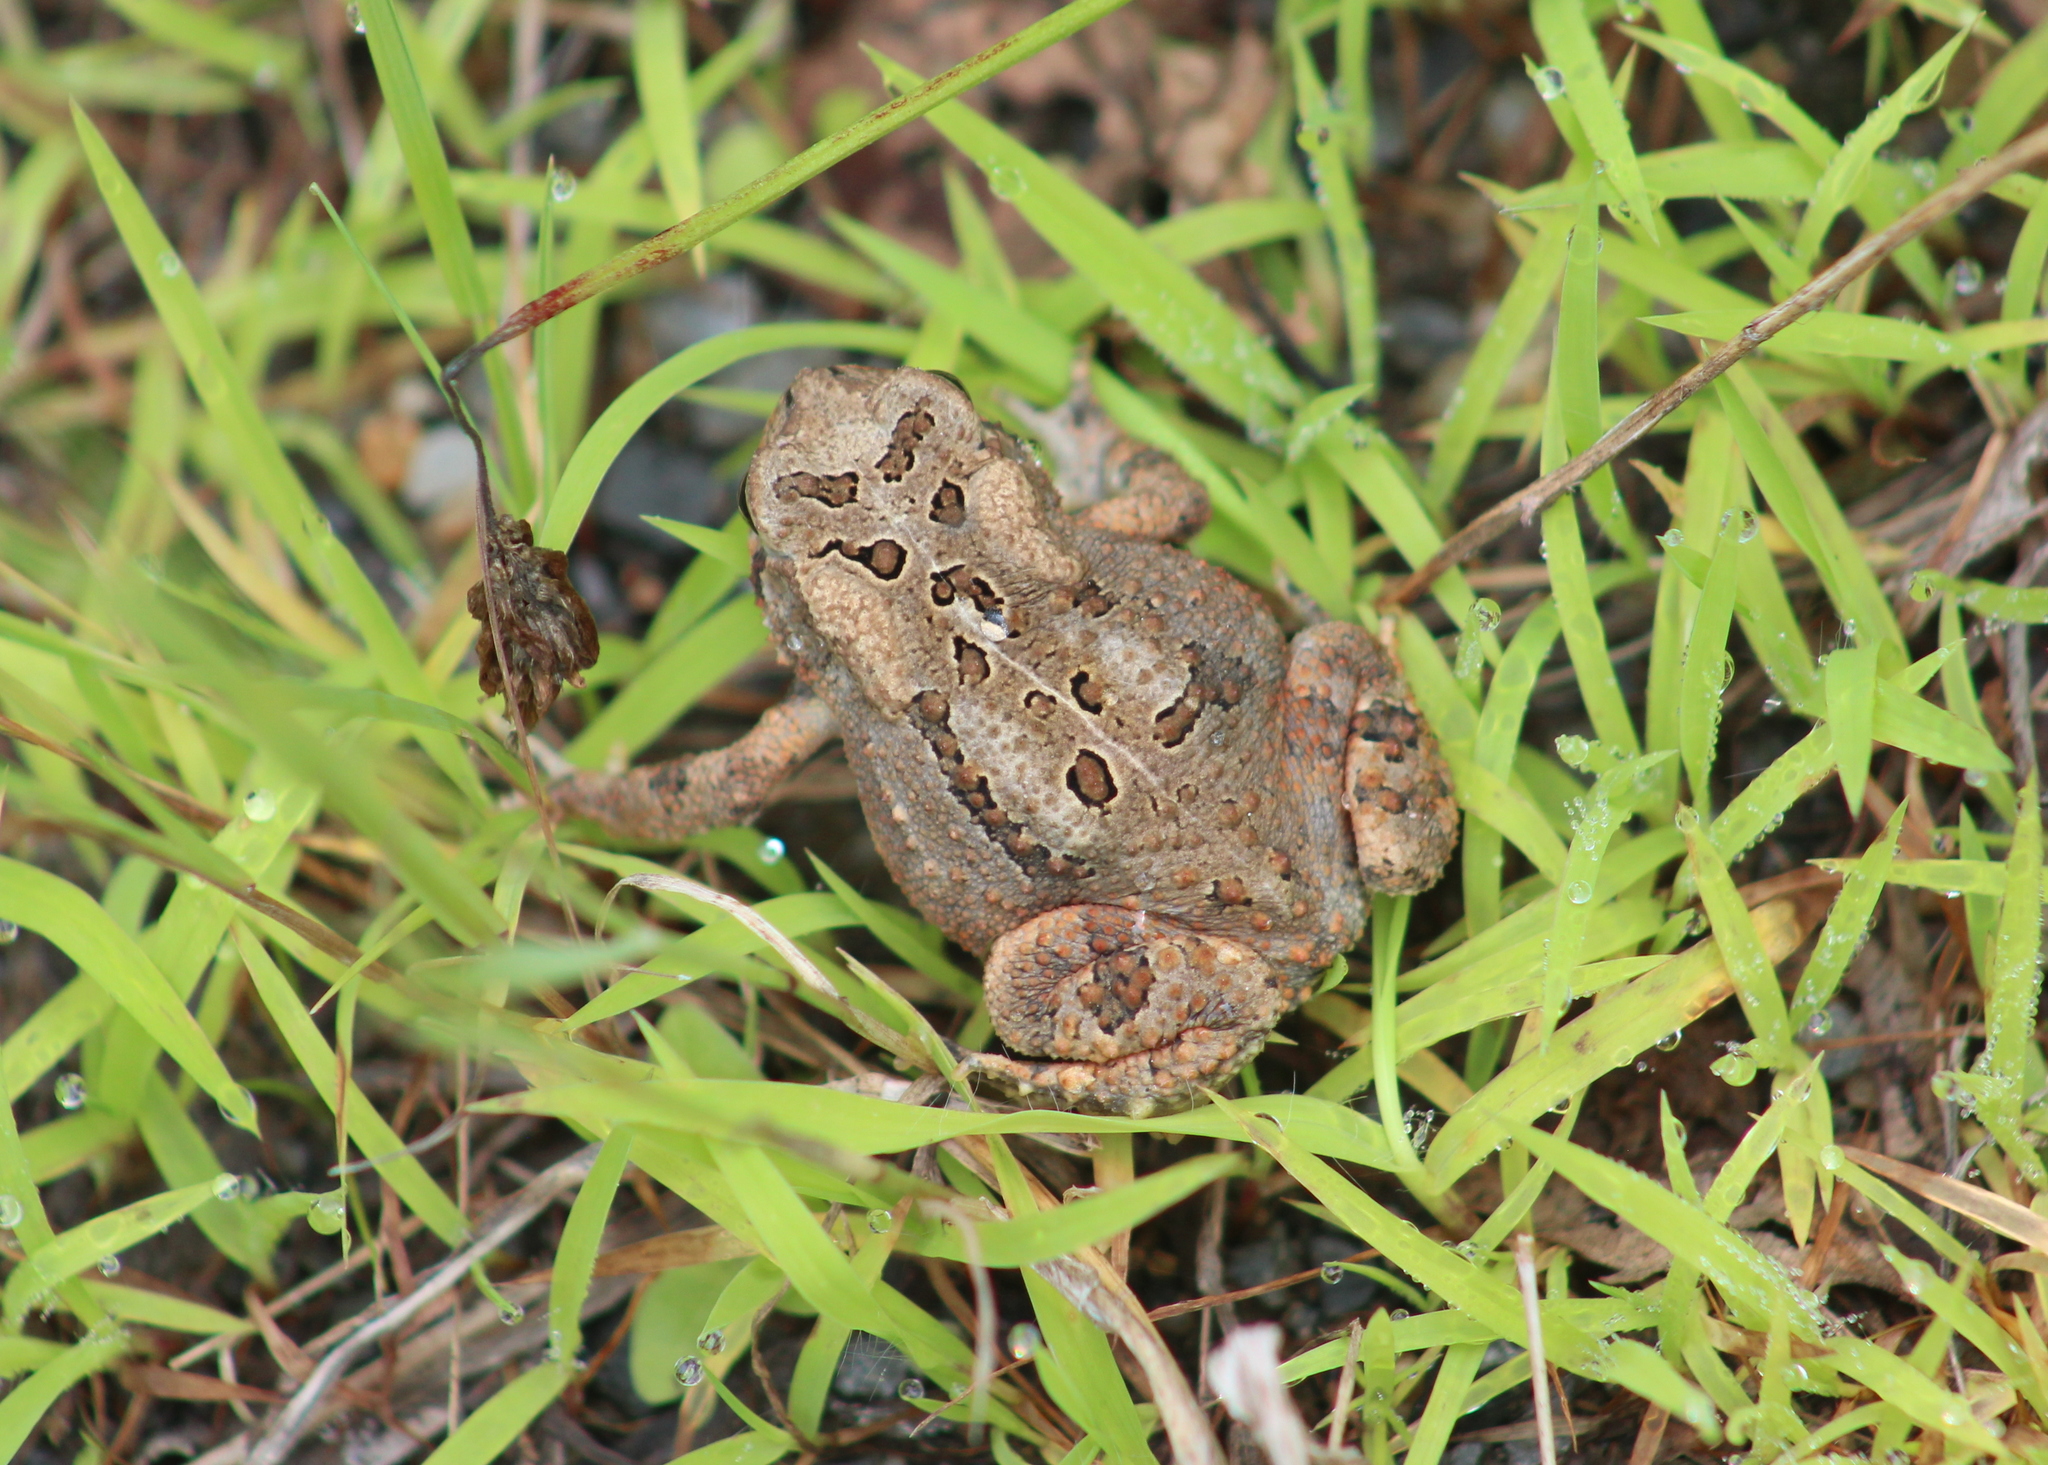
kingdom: Animalia
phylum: Chordata
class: Amphibia
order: Anura
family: Bufonidae
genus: Anaxyrus
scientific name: Anaxyrus americanus
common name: American toad
